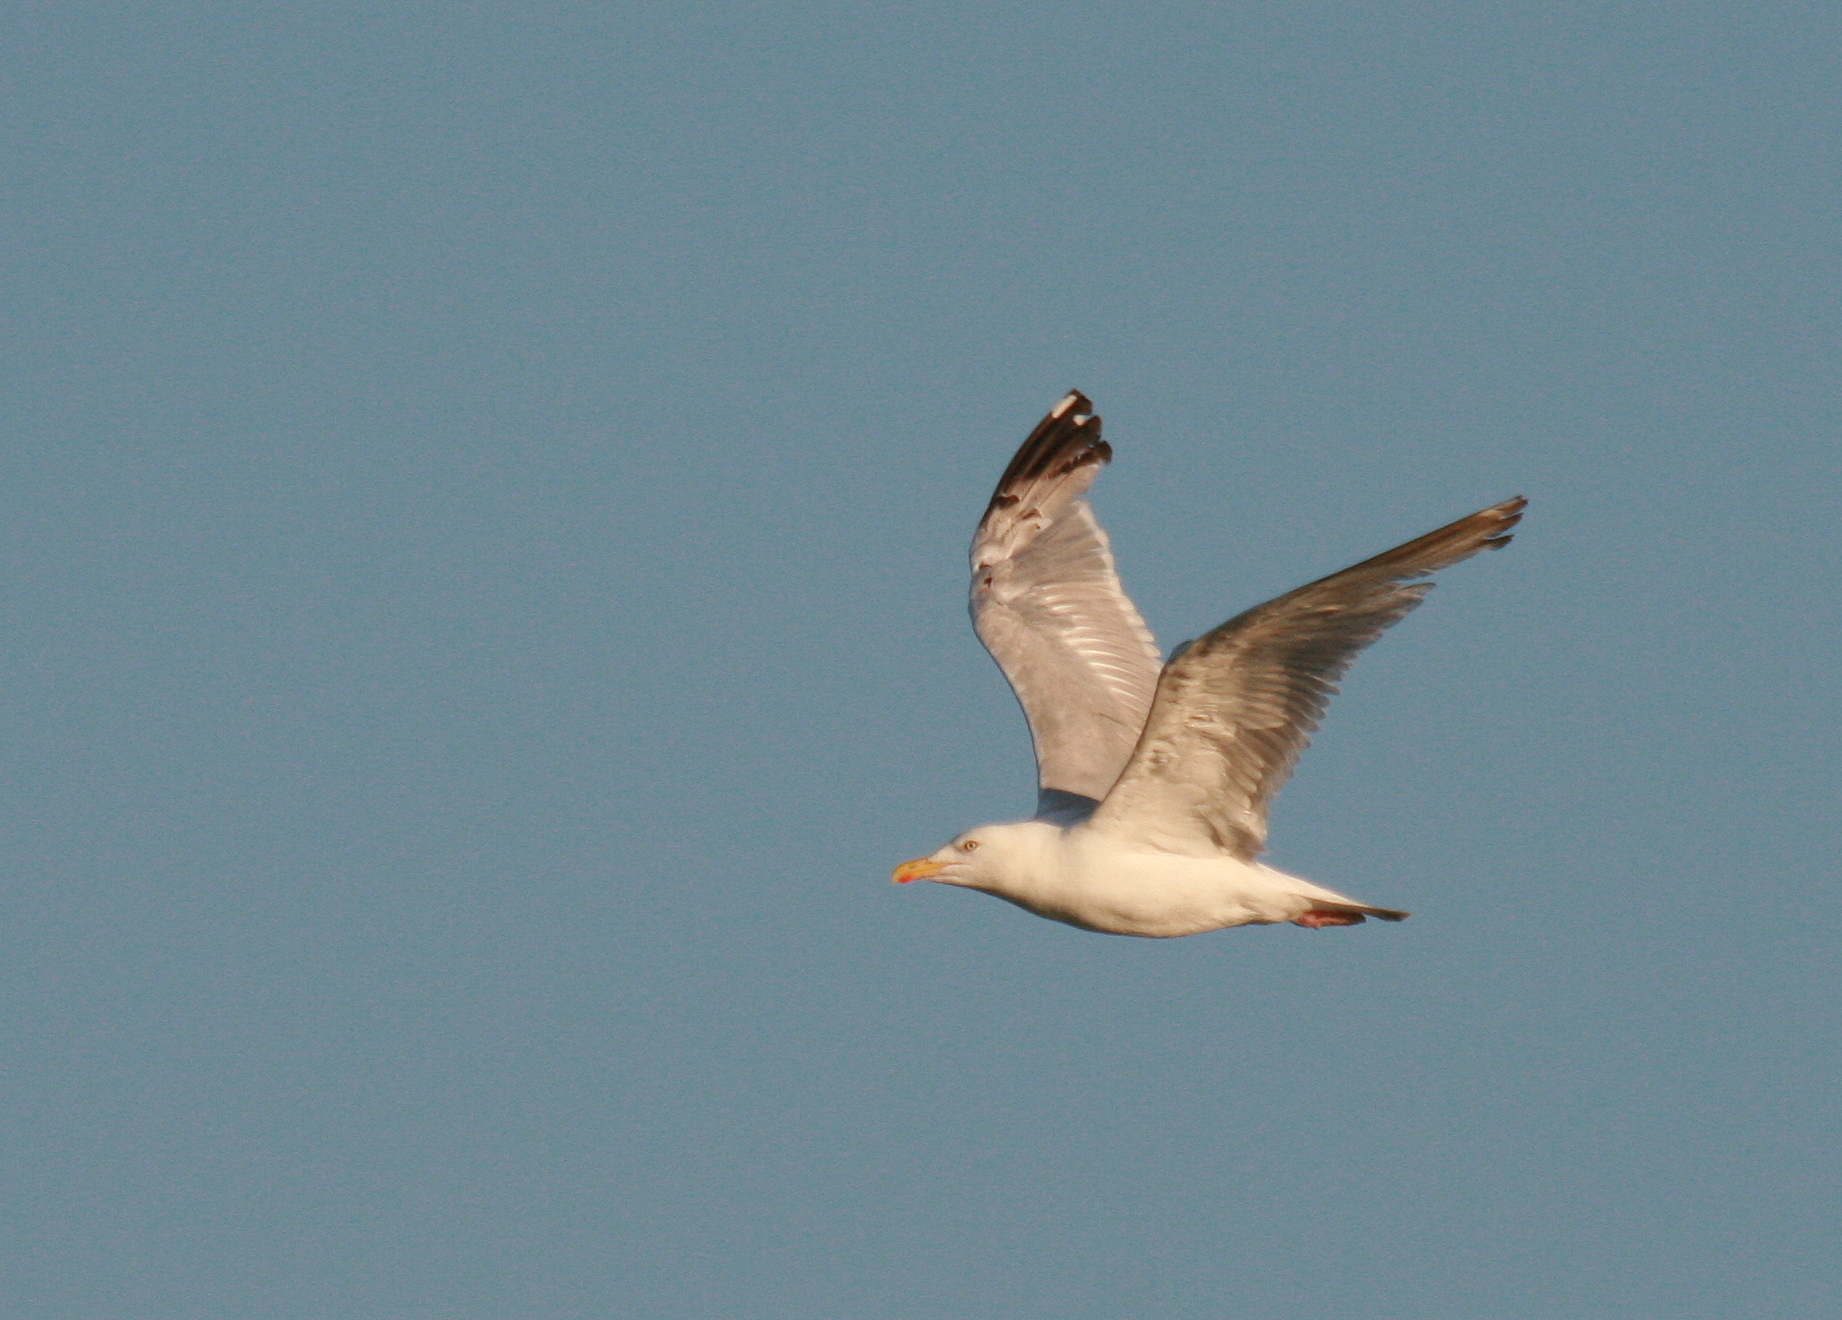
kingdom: Animalia
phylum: Chordata
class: Aves
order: Charadriiformes
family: Laridae
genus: Larus
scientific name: Larus argentatus
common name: Herring gull
